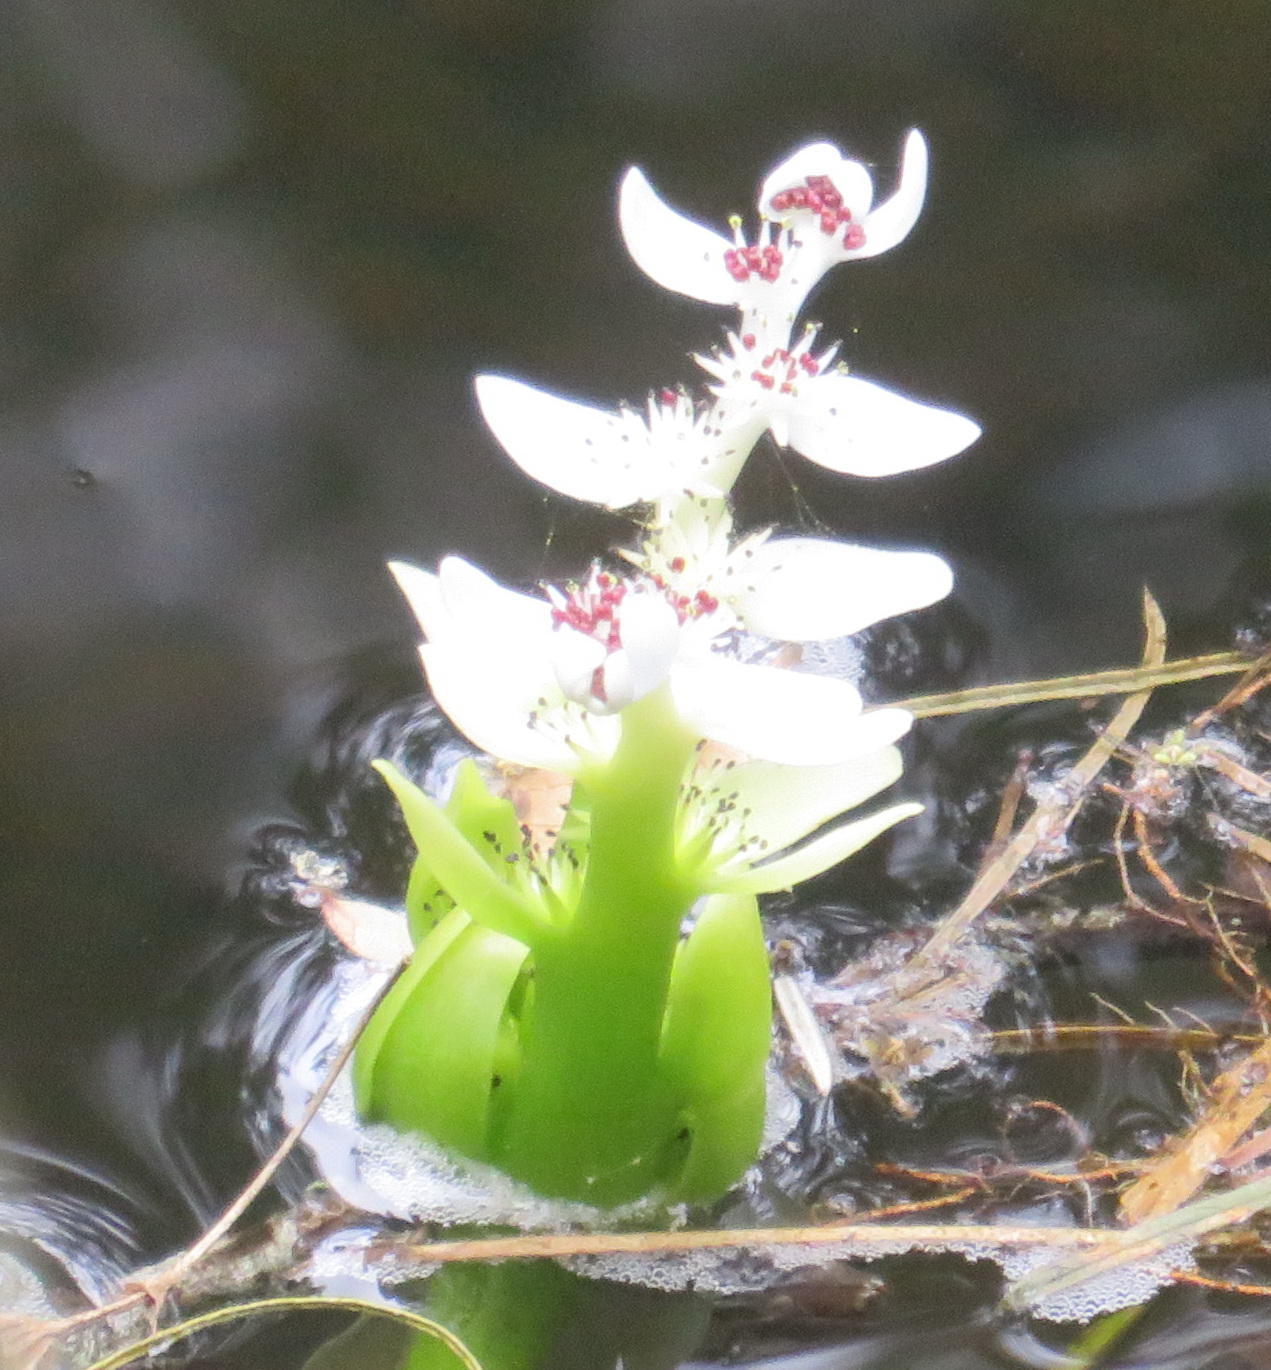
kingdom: Plantae
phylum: Tracheophyta
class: Liliopsida
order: Alismatales
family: Aponogetonaceae
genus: Aponogeton
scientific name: Aponogeton distachyos
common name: Cape-pondweed
